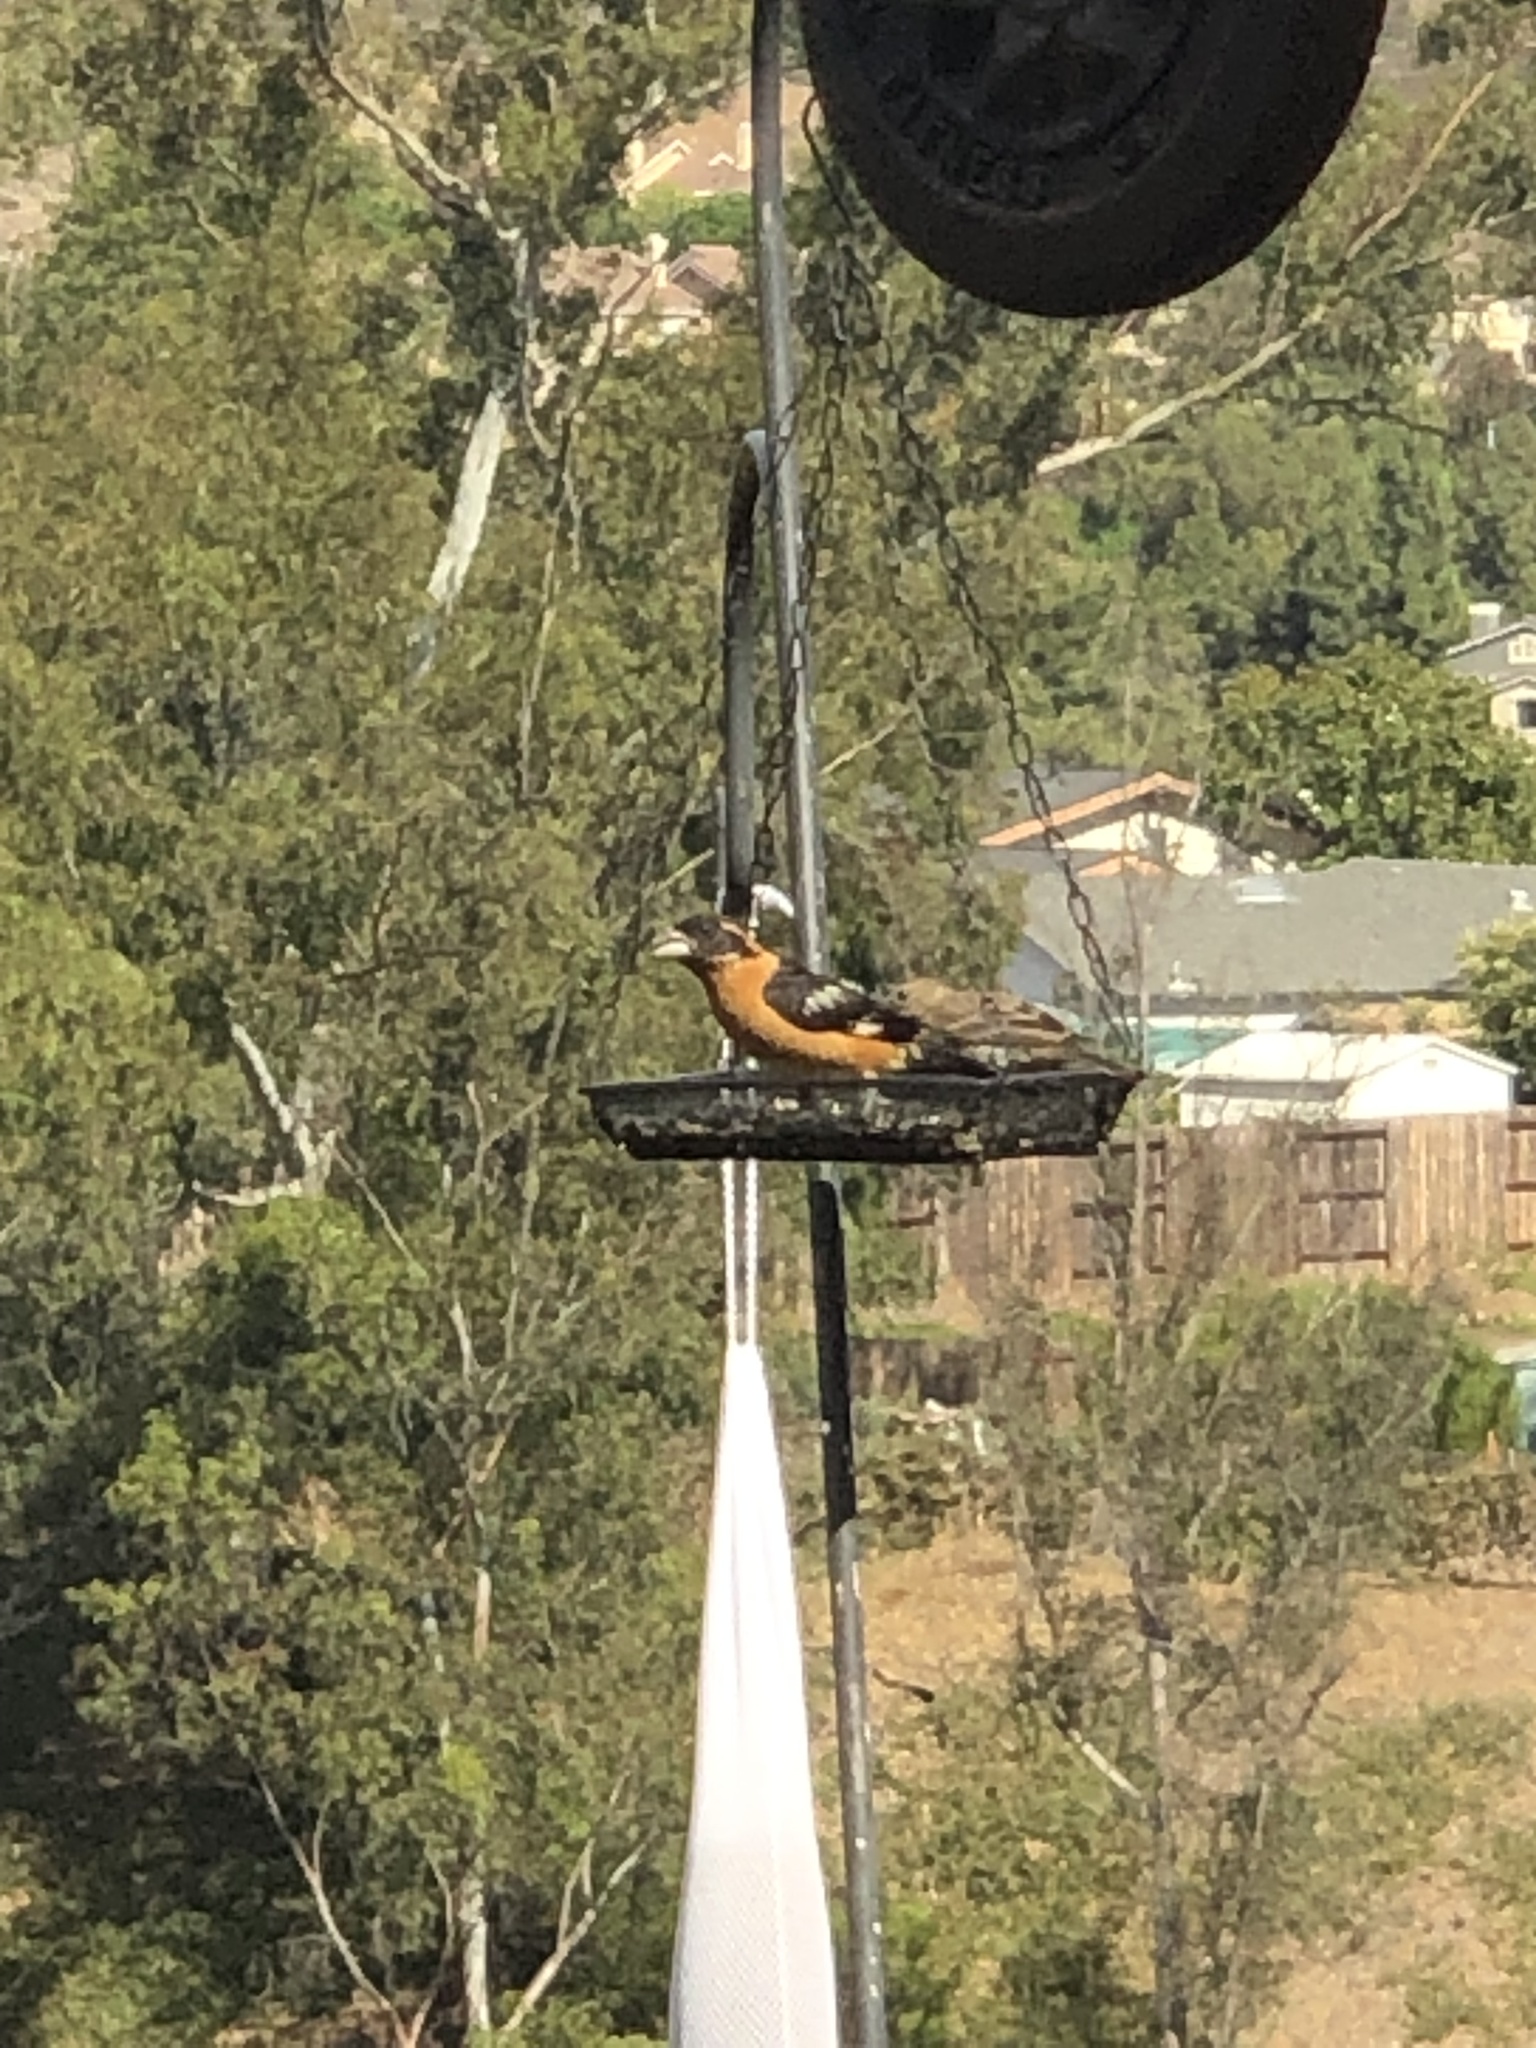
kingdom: Animalia
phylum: Chordata
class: Aves
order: Passeriformes
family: Cardinalidae
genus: Pheucticus
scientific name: Pheucticus melanocephalus
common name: Black-headed grosbeak
